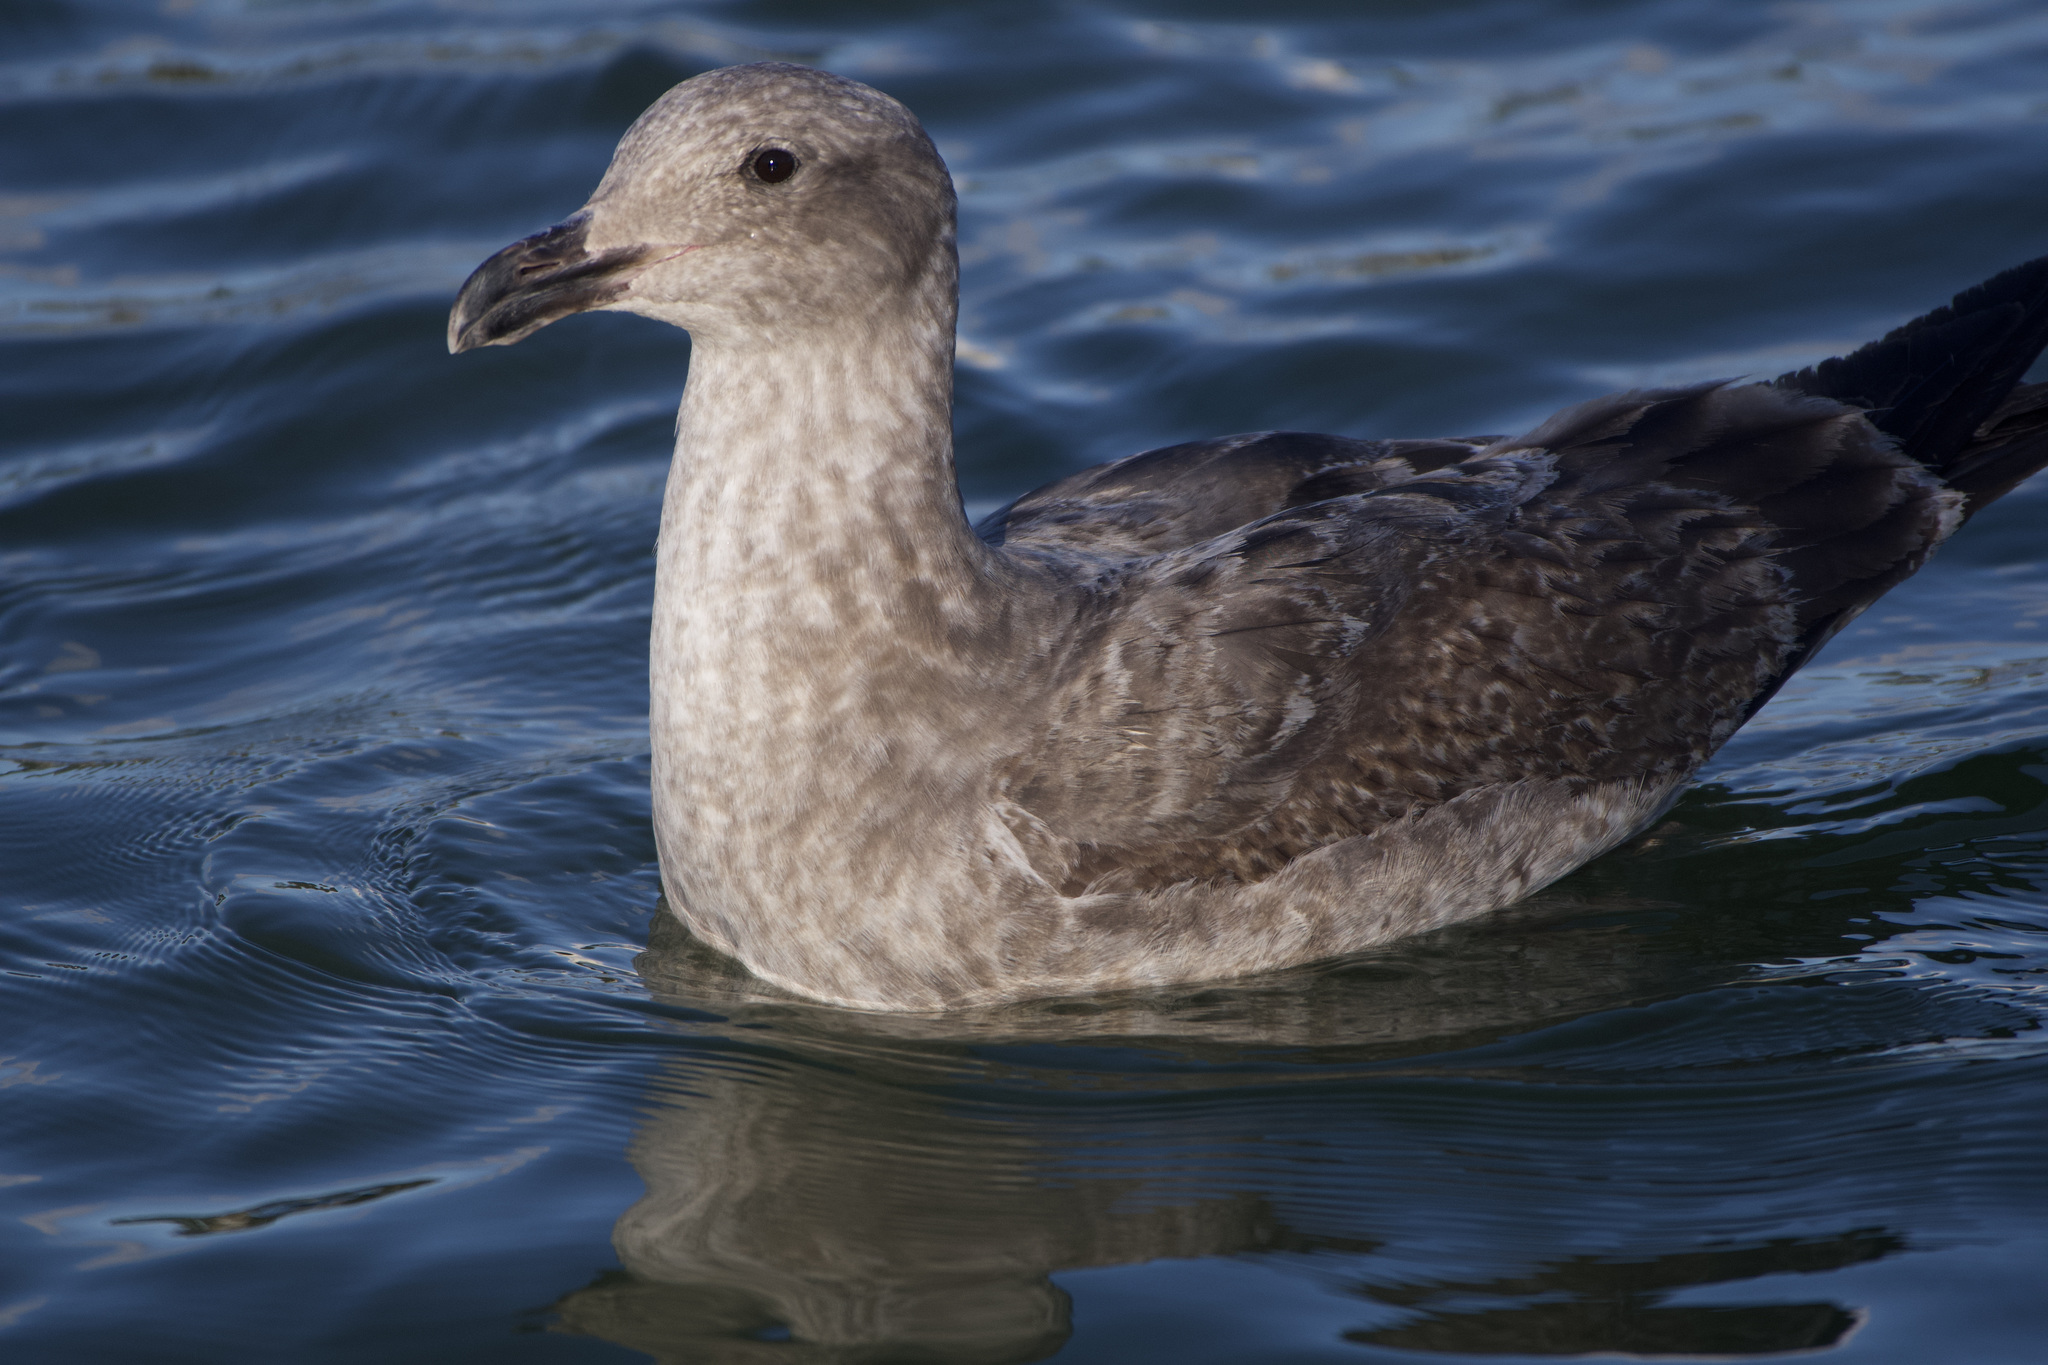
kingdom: Animalia
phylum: Chordata
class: Aves
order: Charadriiformes
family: Laridae
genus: Larus
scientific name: Larus occidentalis
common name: Western gull
